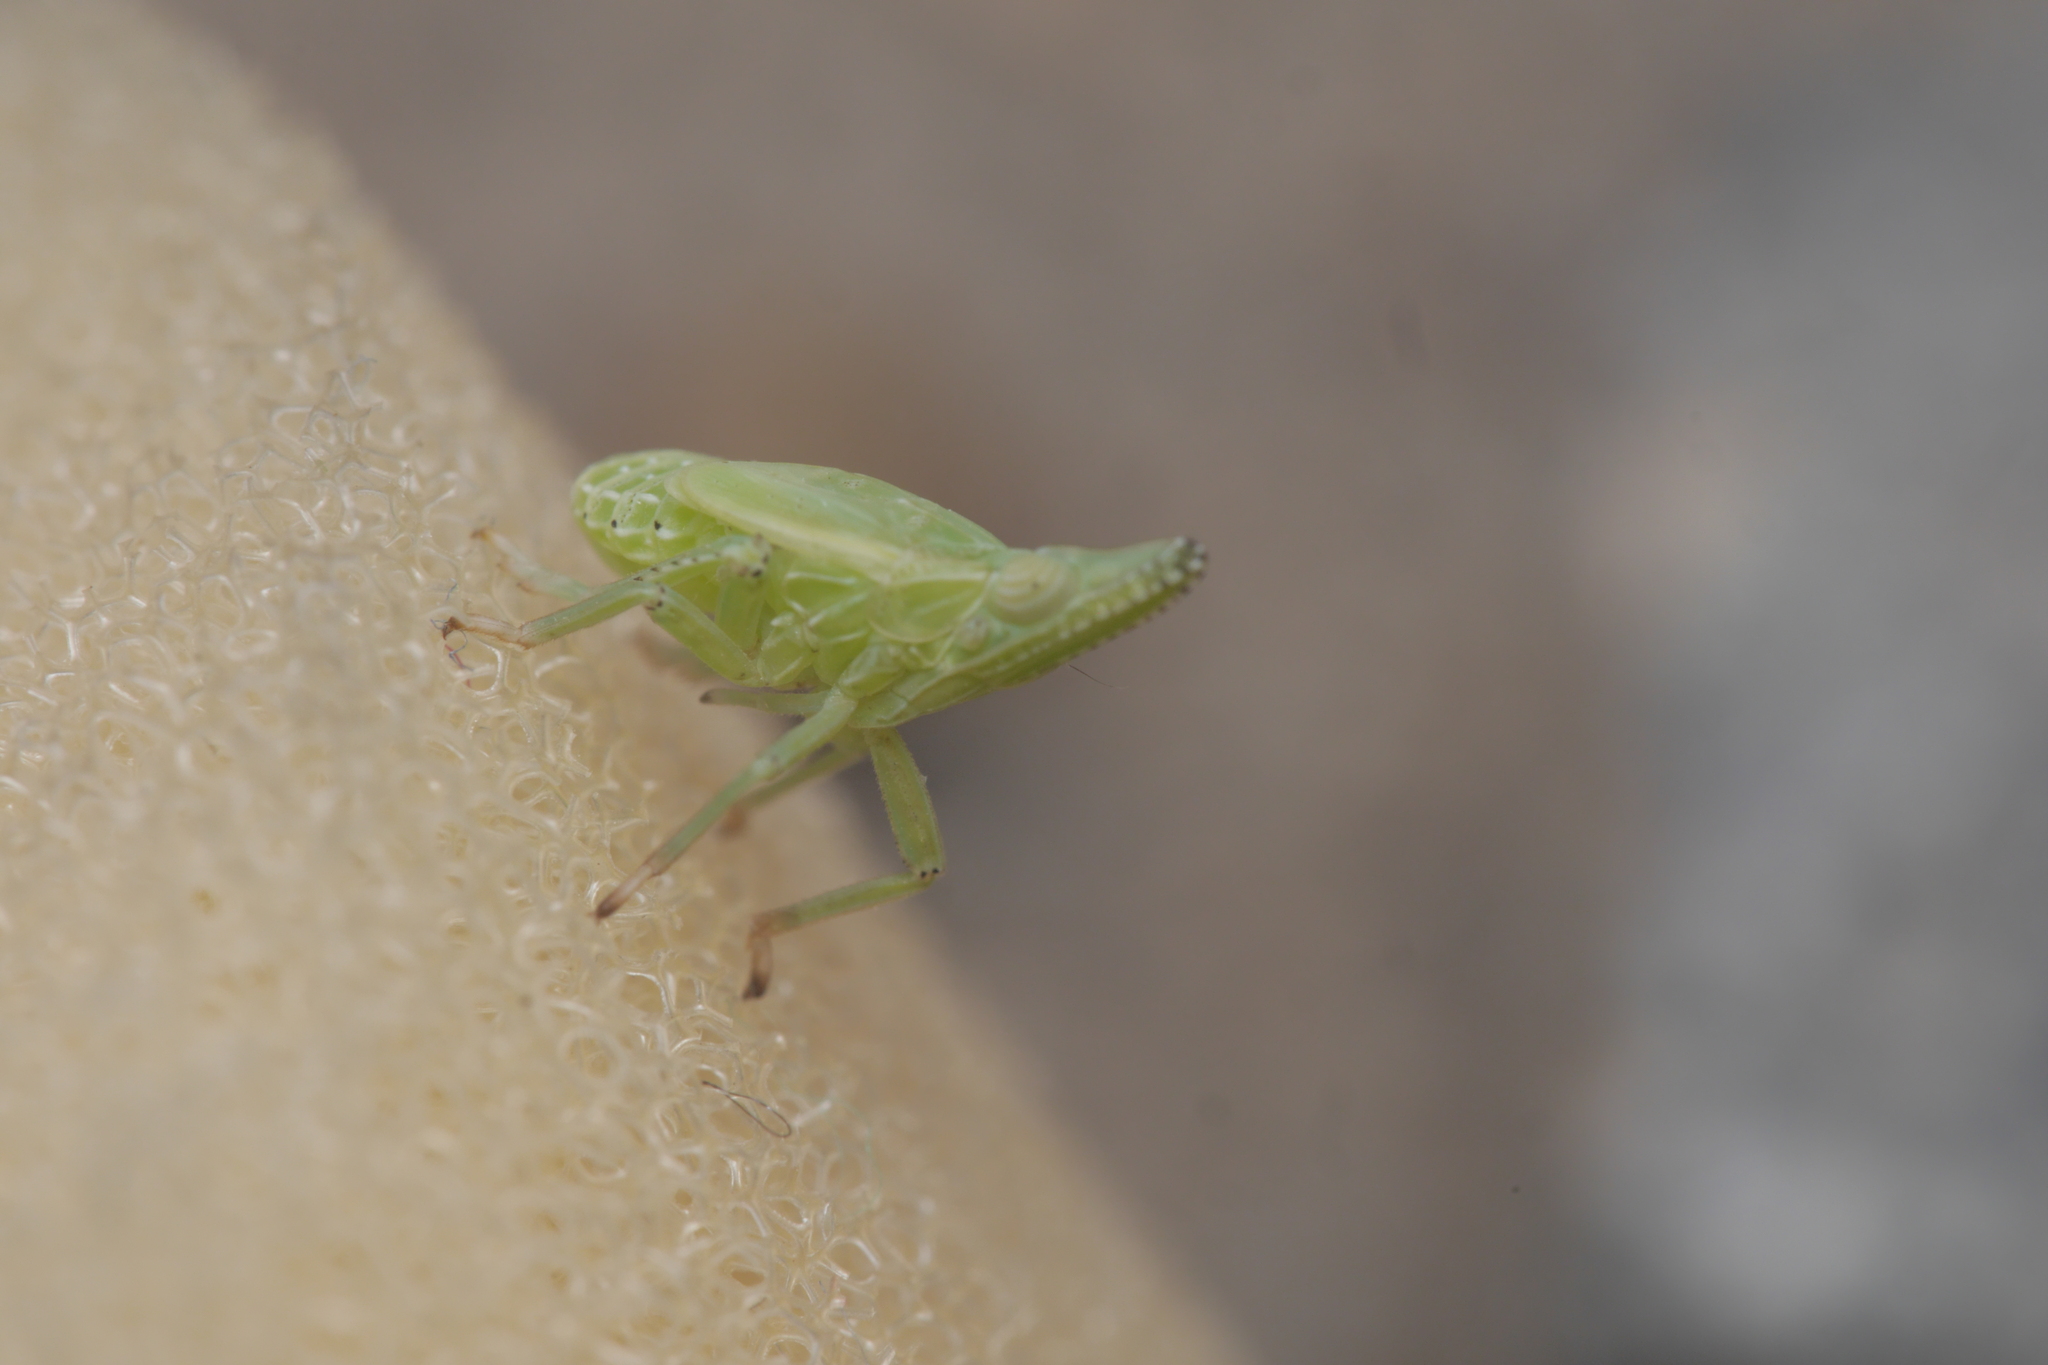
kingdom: Animalia
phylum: Arthropoda
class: Insecta
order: Hemiptera
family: Dictyopharidae
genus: Dictyophara
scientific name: Dictyophara europaea
